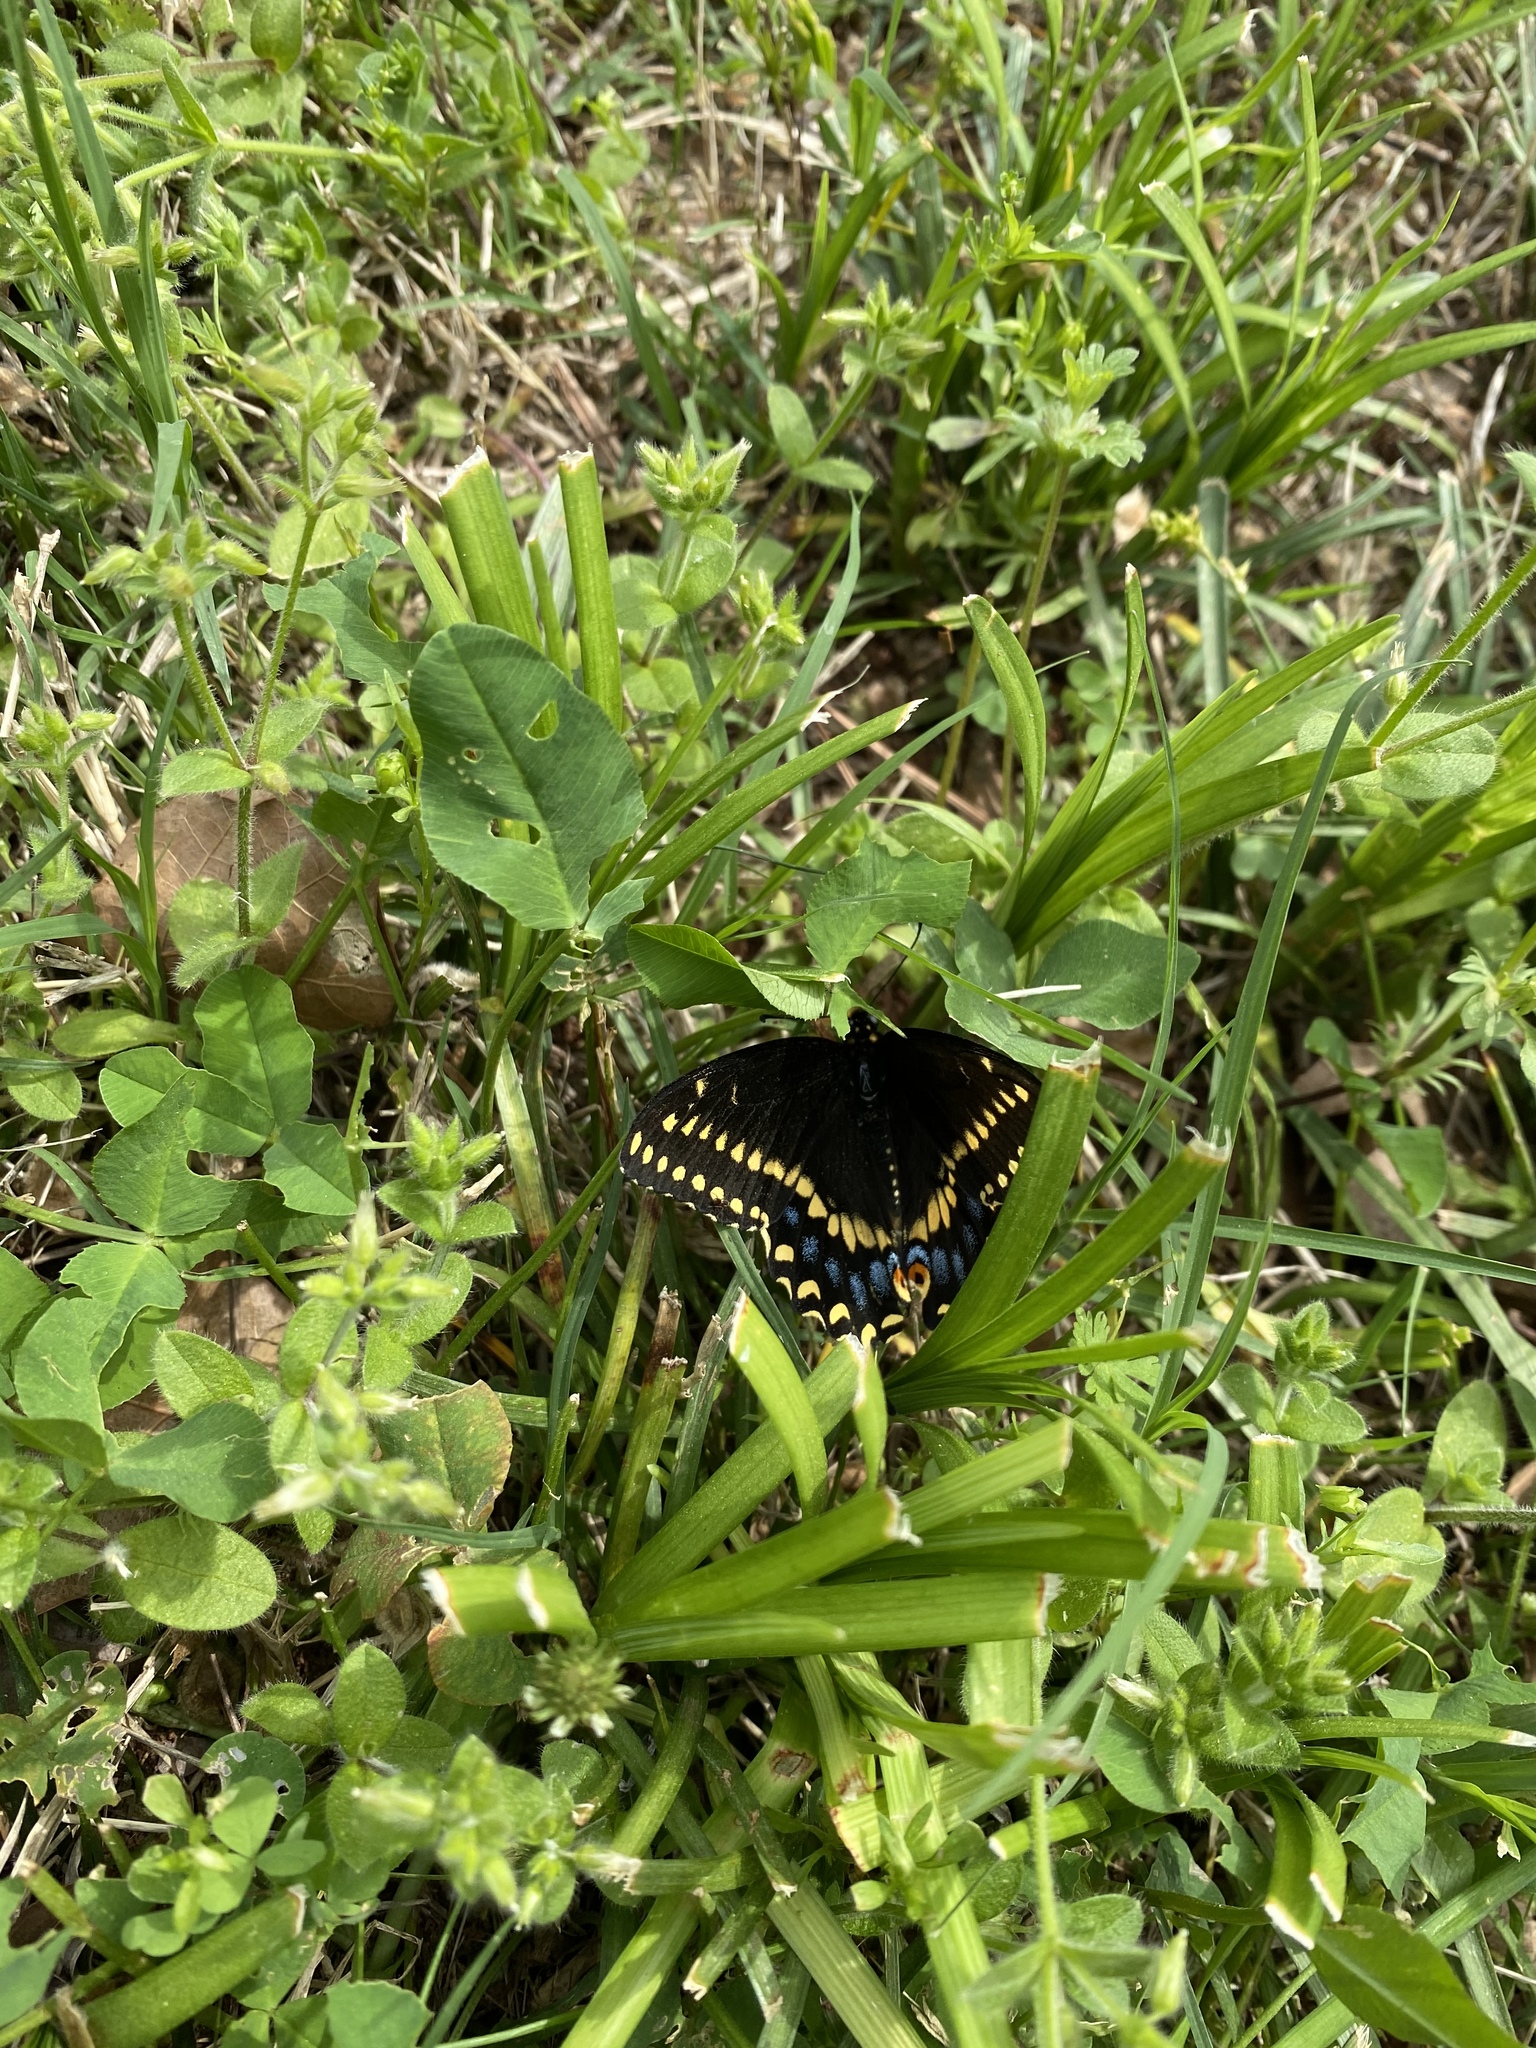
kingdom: Animalia
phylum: Arthropoda
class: Insecta
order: Lepidoptera
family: Papilionidae
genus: Papilio
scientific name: Papilio polyxenes
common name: Black swallowtail
